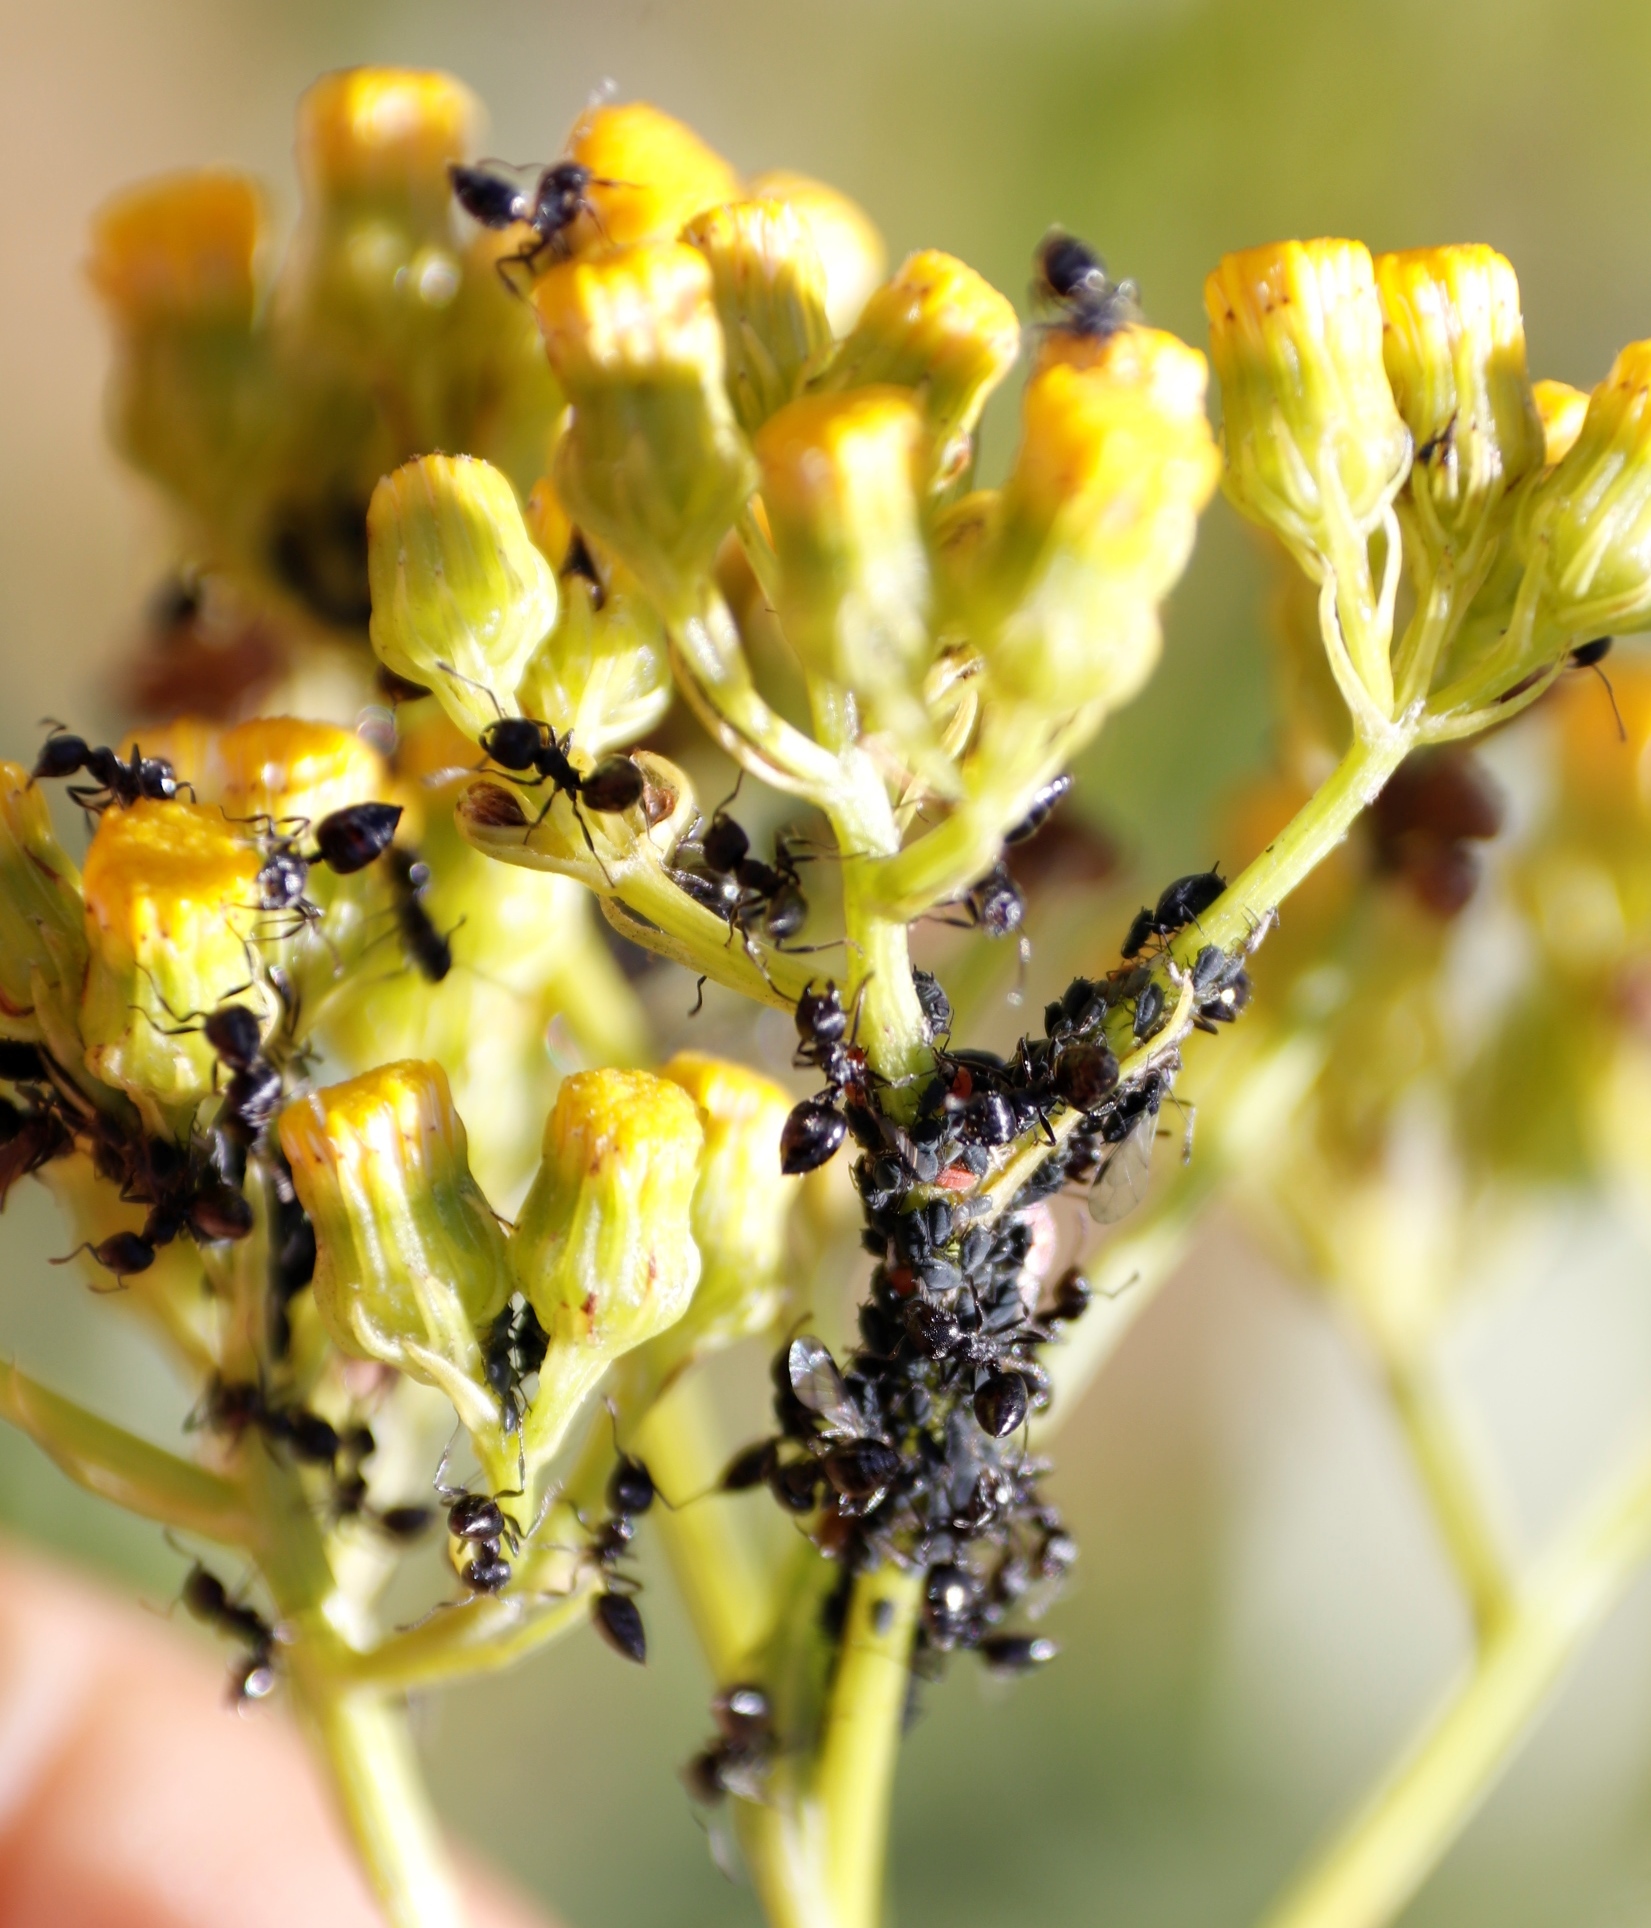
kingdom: Animalia
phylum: Arthropoda
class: Insecta
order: Hymenoptera
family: Formicidae
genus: Crematogaster
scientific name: Crematogaster peringueyi
